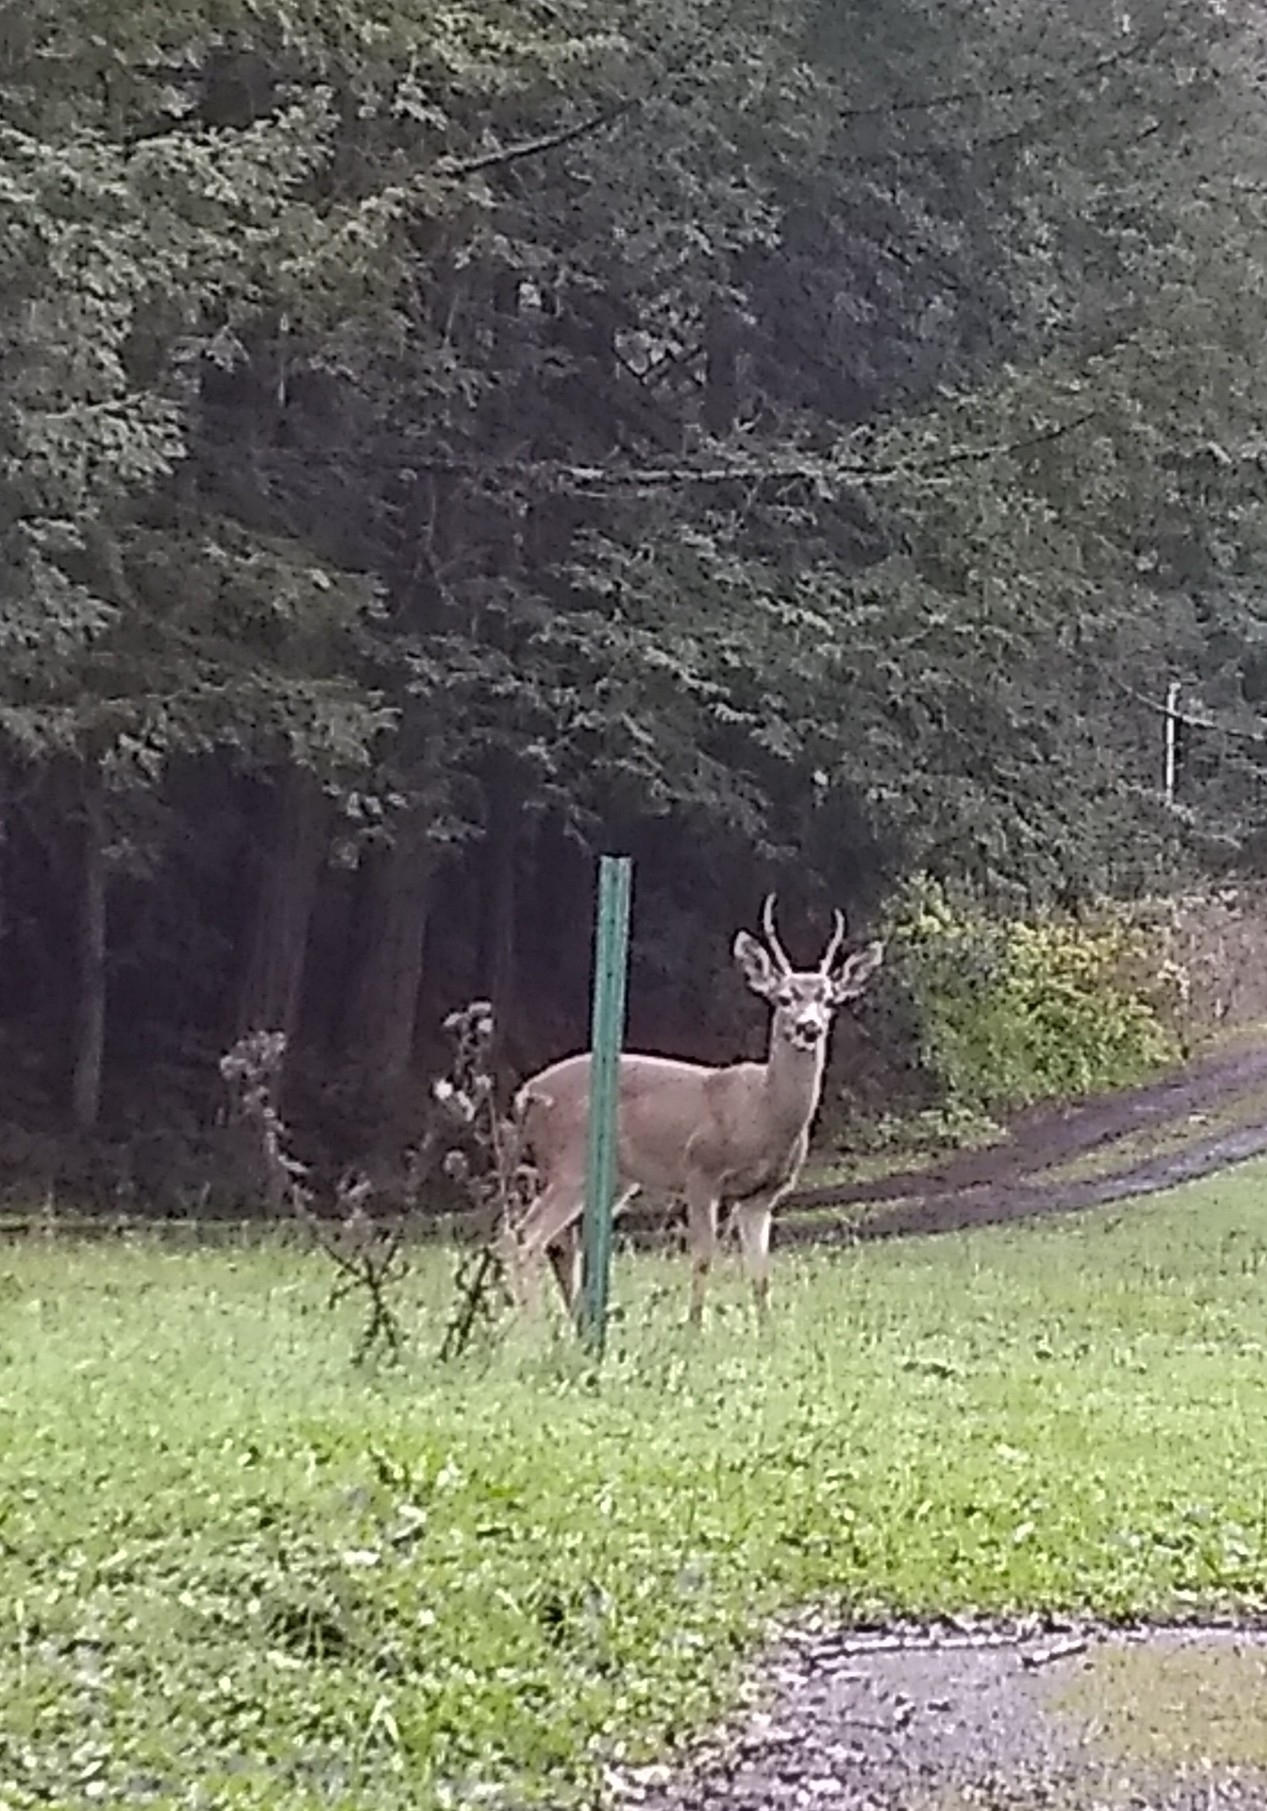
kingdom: Animalia
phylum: Chordata
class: Mammalia
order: Artiodactyla
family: Cervidae
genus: Odocoileus
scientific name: Odocoileus hemionus
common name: Mule deer
